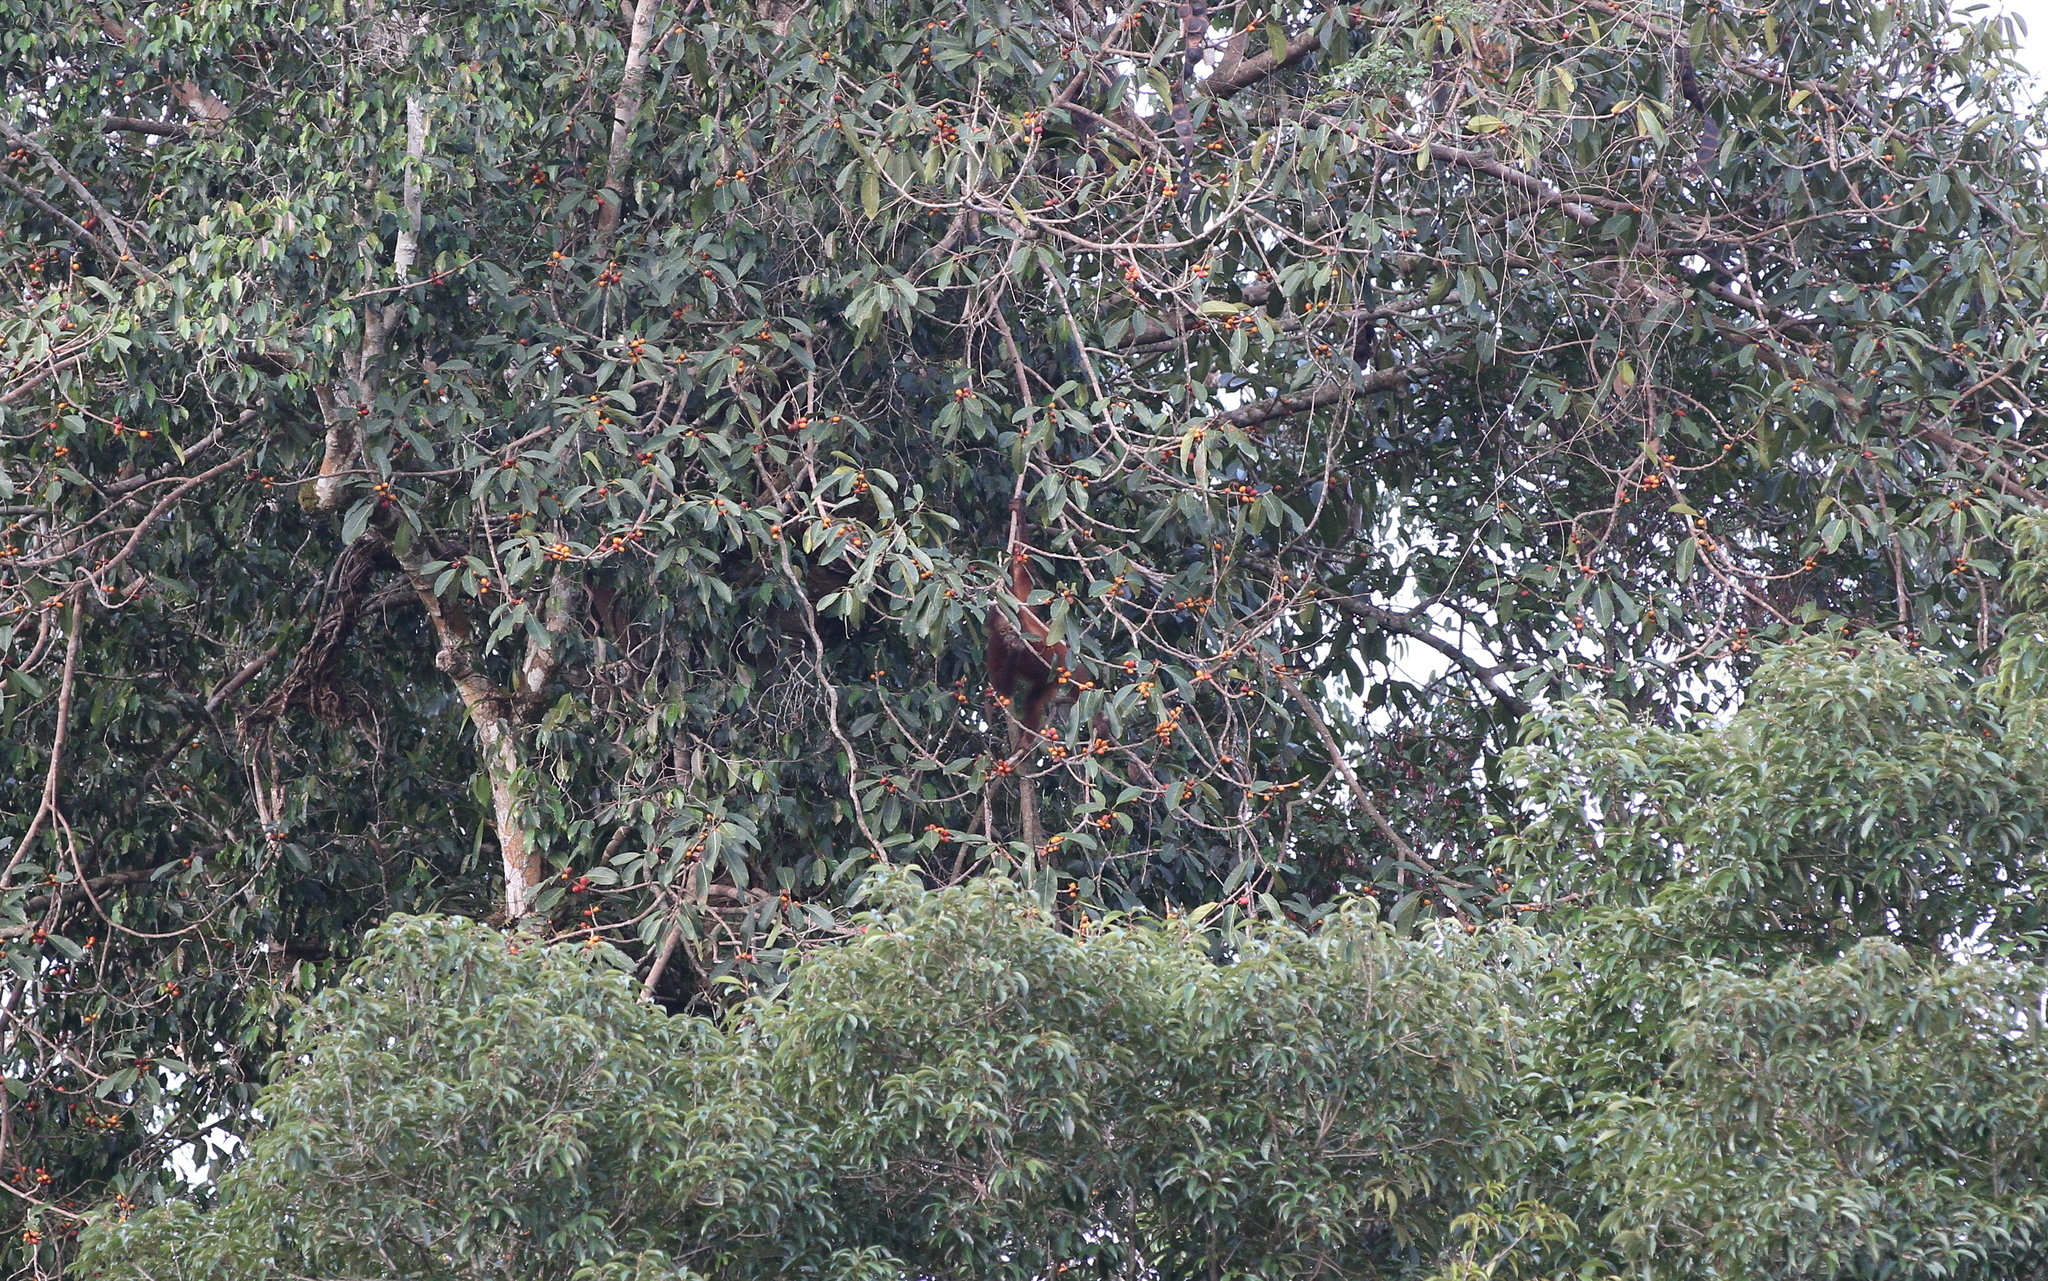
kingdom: Animalia
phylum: Chordata
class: Mammalia
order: Primates
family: Hominidae
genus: Pongo
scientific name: Pongo pygmaeus
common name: Bornean orangutan
